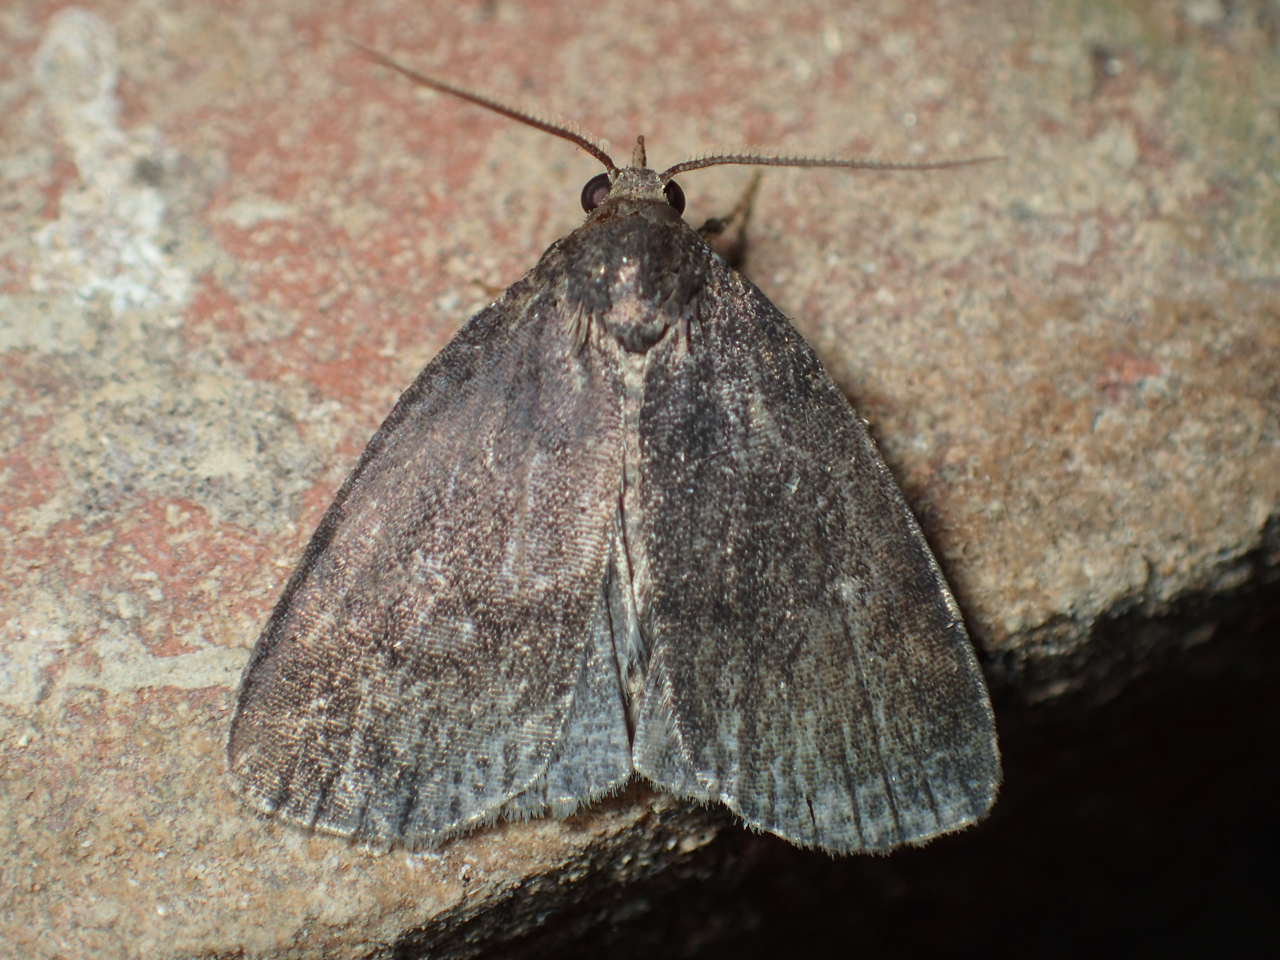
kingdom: Animalia
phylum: Arthropoda
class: Insecta
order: Lepidoptera
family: Erebidae
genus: Idia
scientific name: Idia rotundalis
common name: Rotund idia moth
